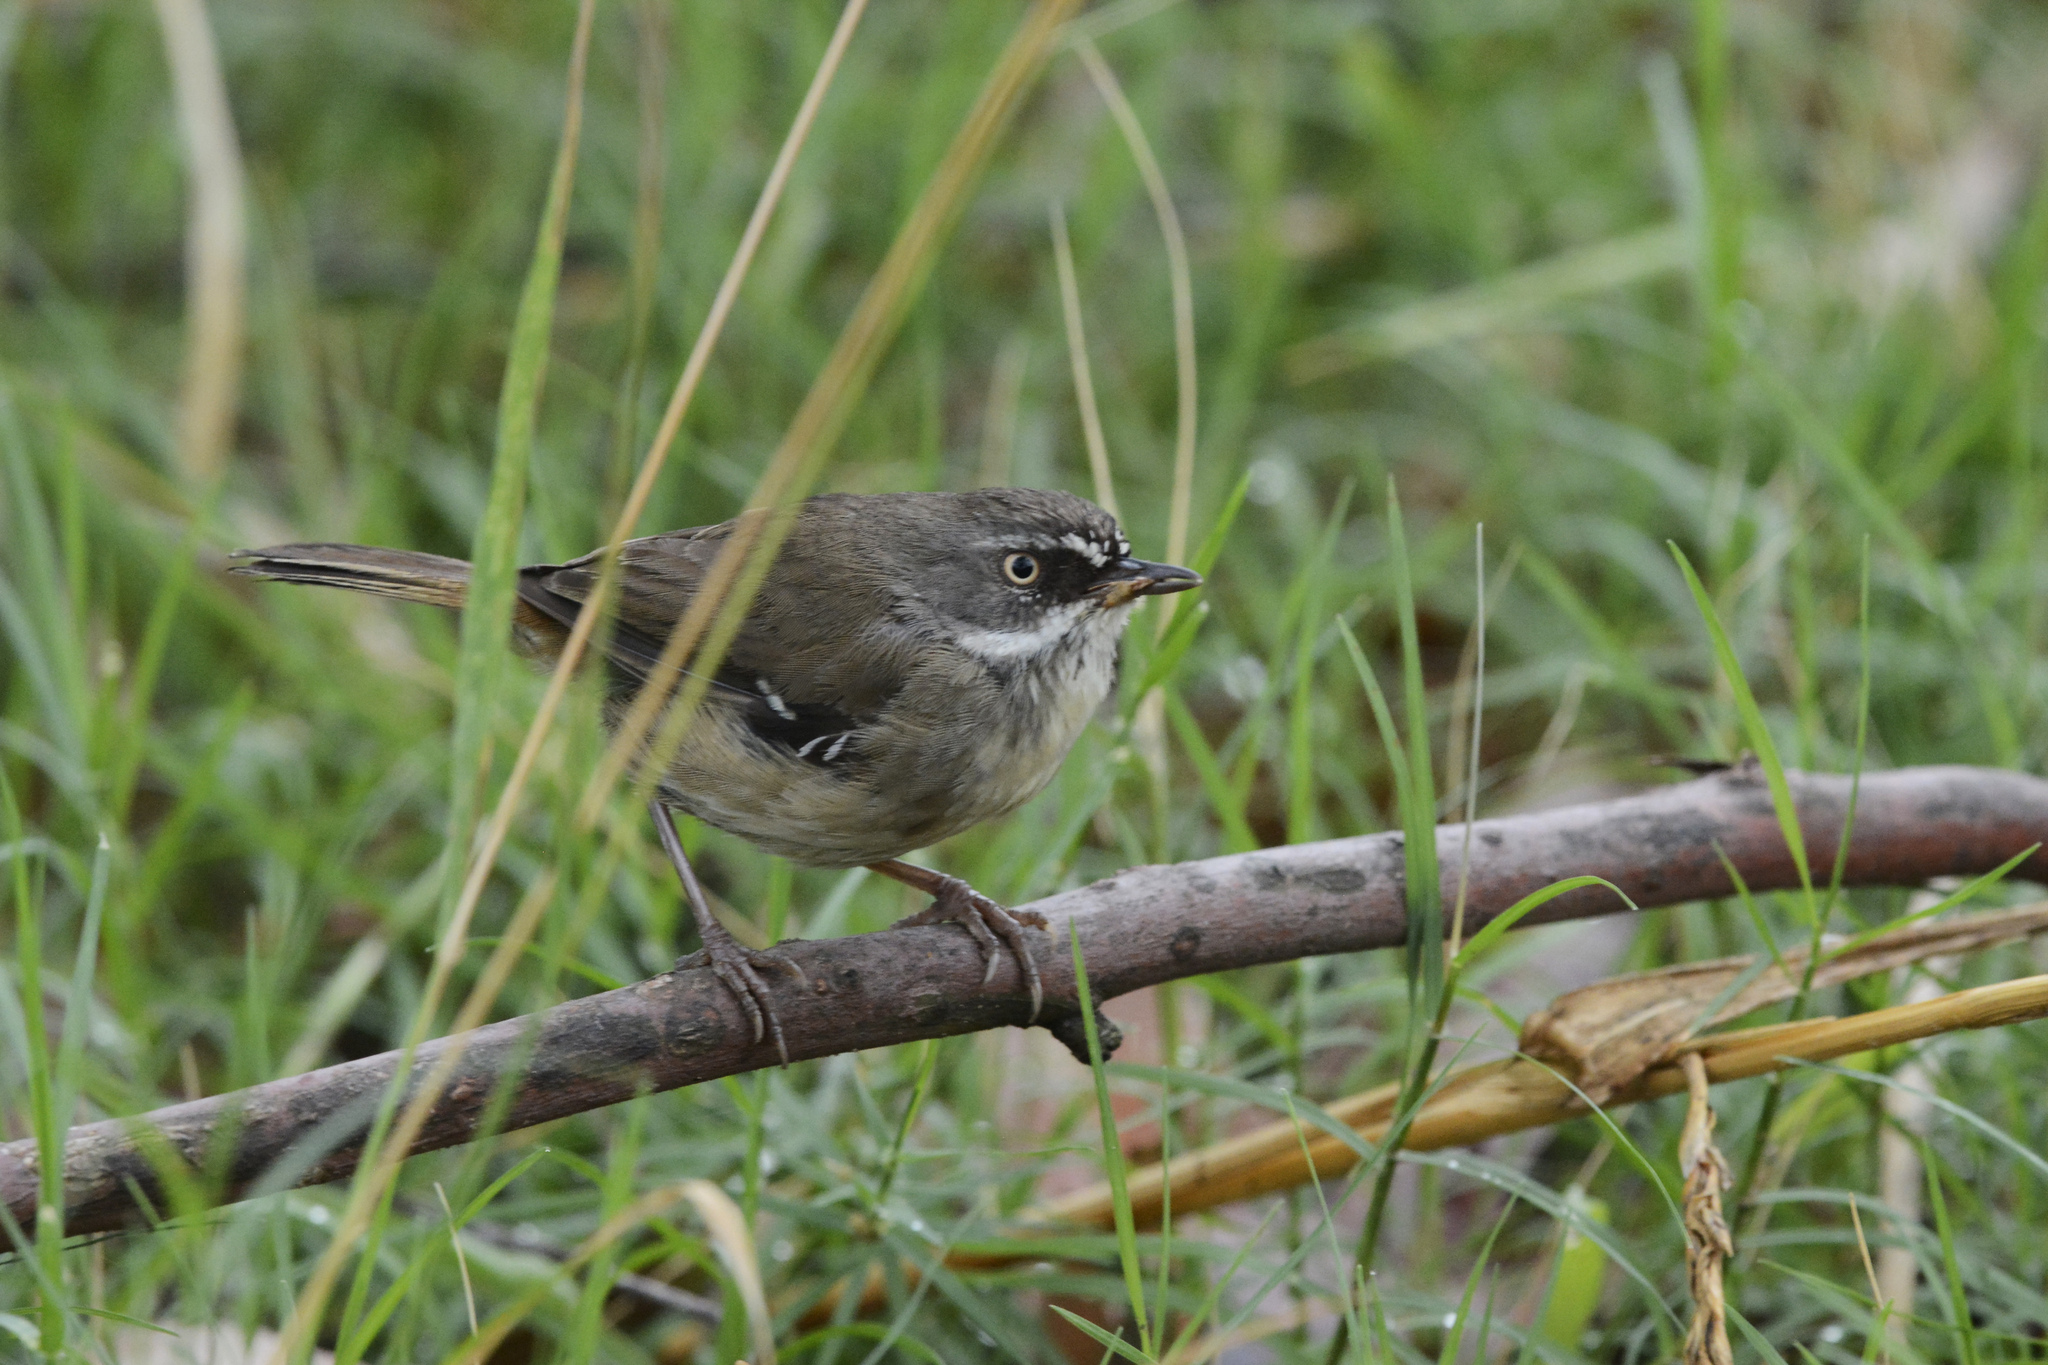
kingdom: Animalia
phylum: Chordata
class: Aves
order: Passeriformes
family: Acanthizidae
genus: Sericornis
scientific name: Sericornis frontalis
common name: White-browed scrubwren
